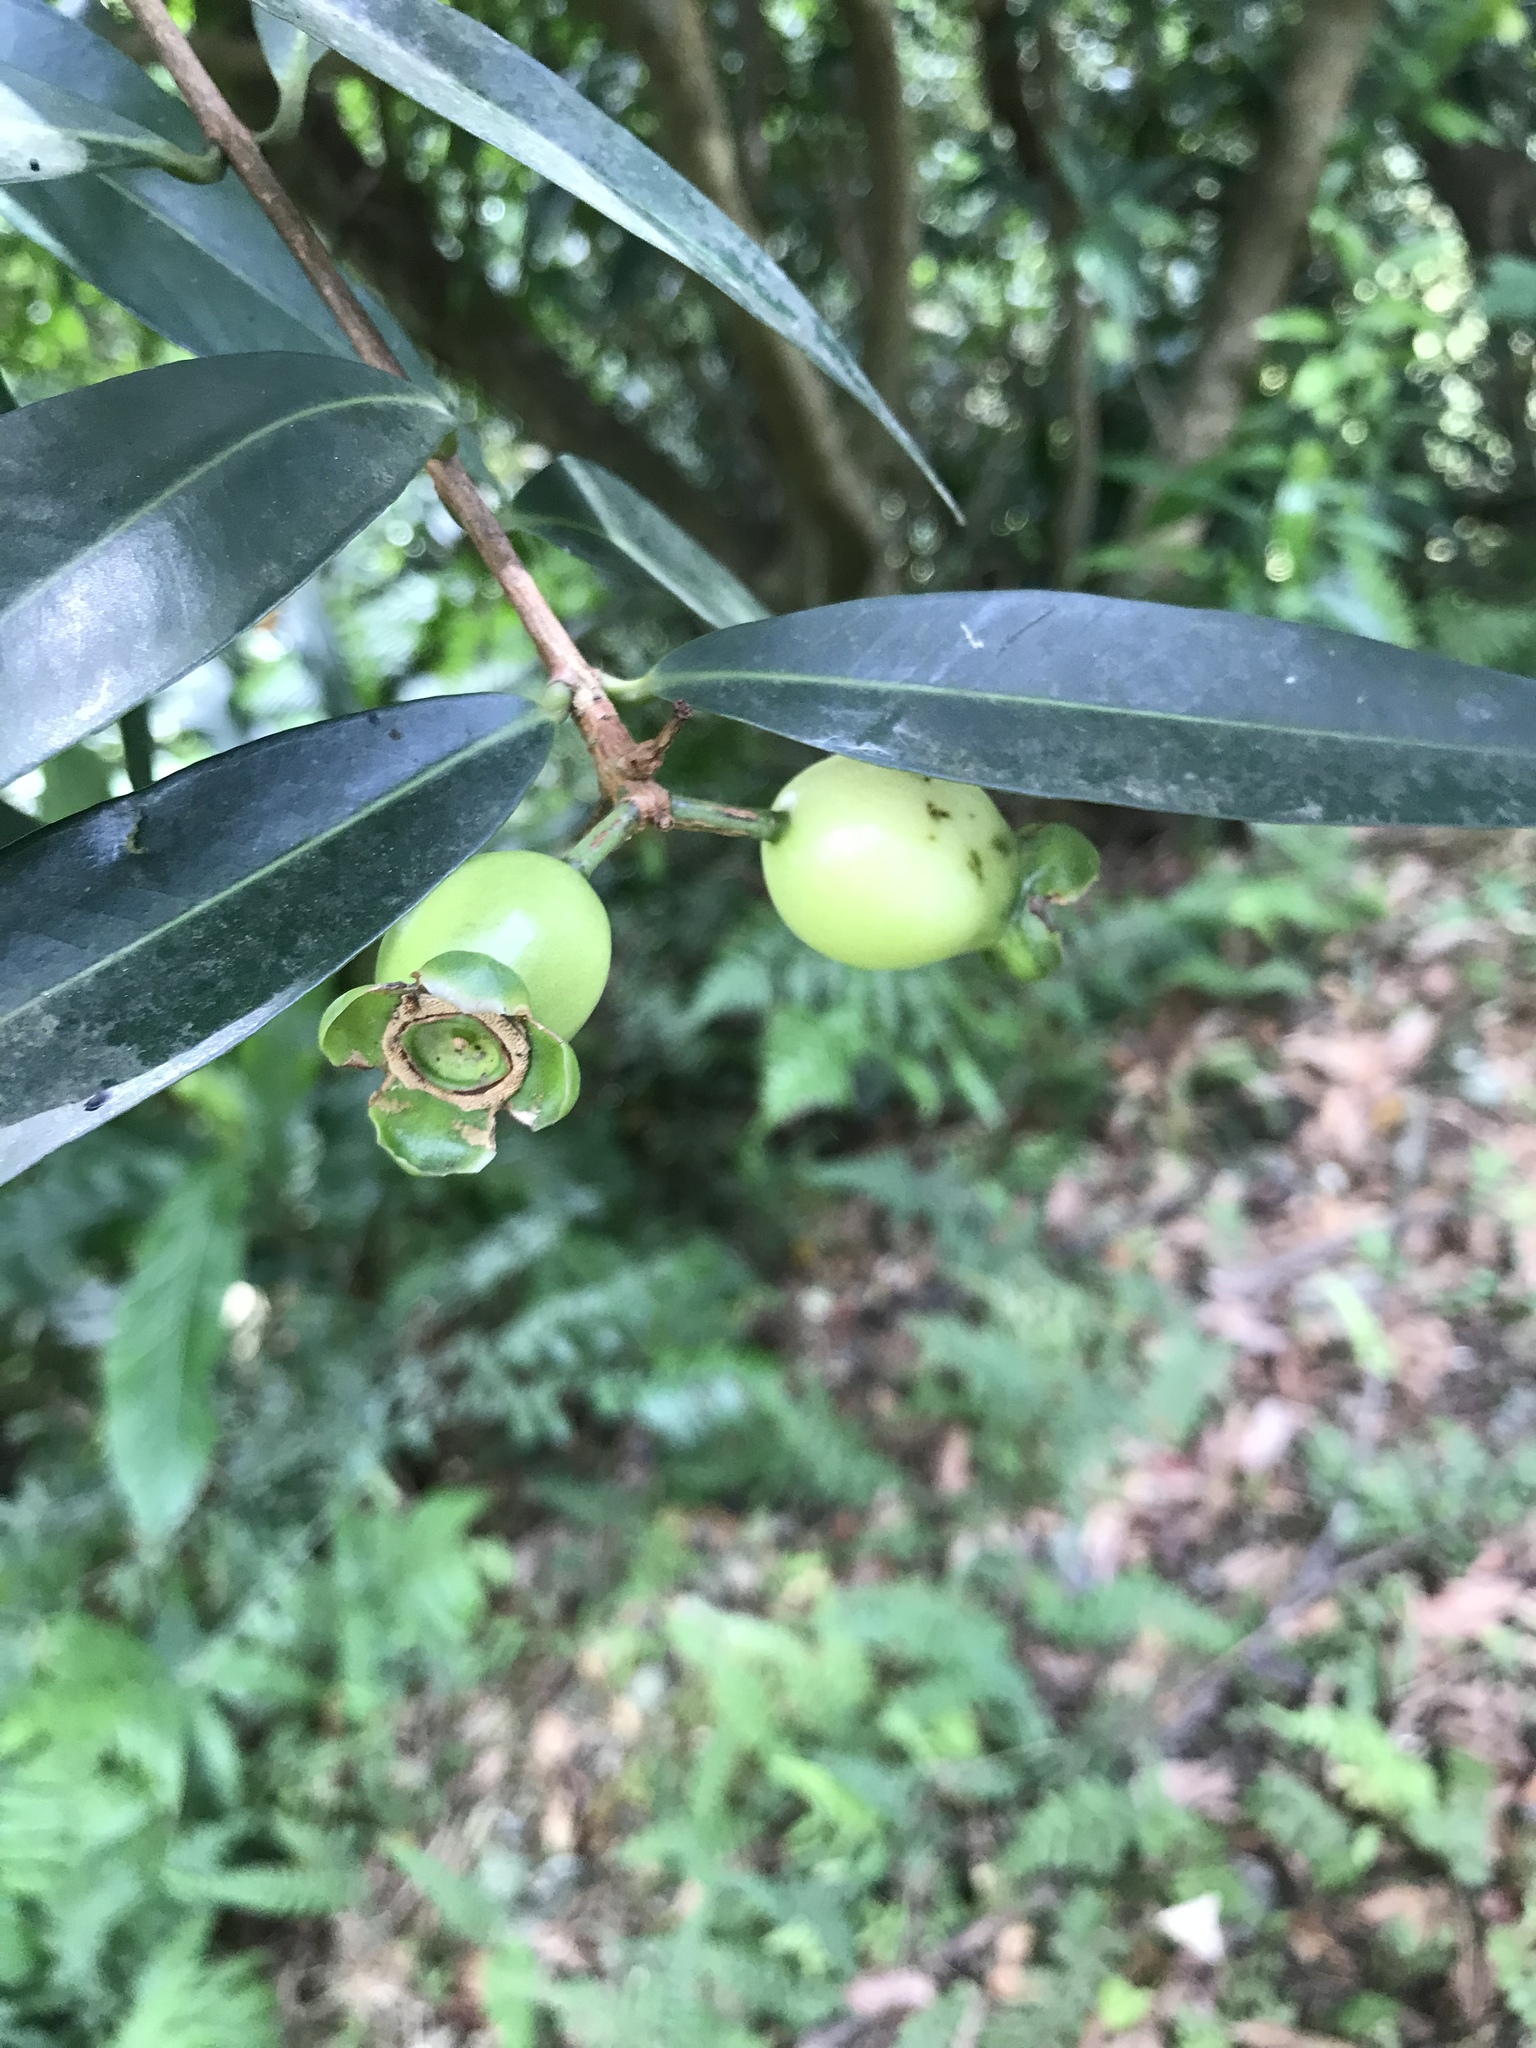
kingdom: Plantae
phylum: Tracheophyta
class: Magnoliopsida
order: Myrtales
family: Myrtaceae
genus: Syzygium
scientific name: Syzygium jambos
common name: Malabar plum
